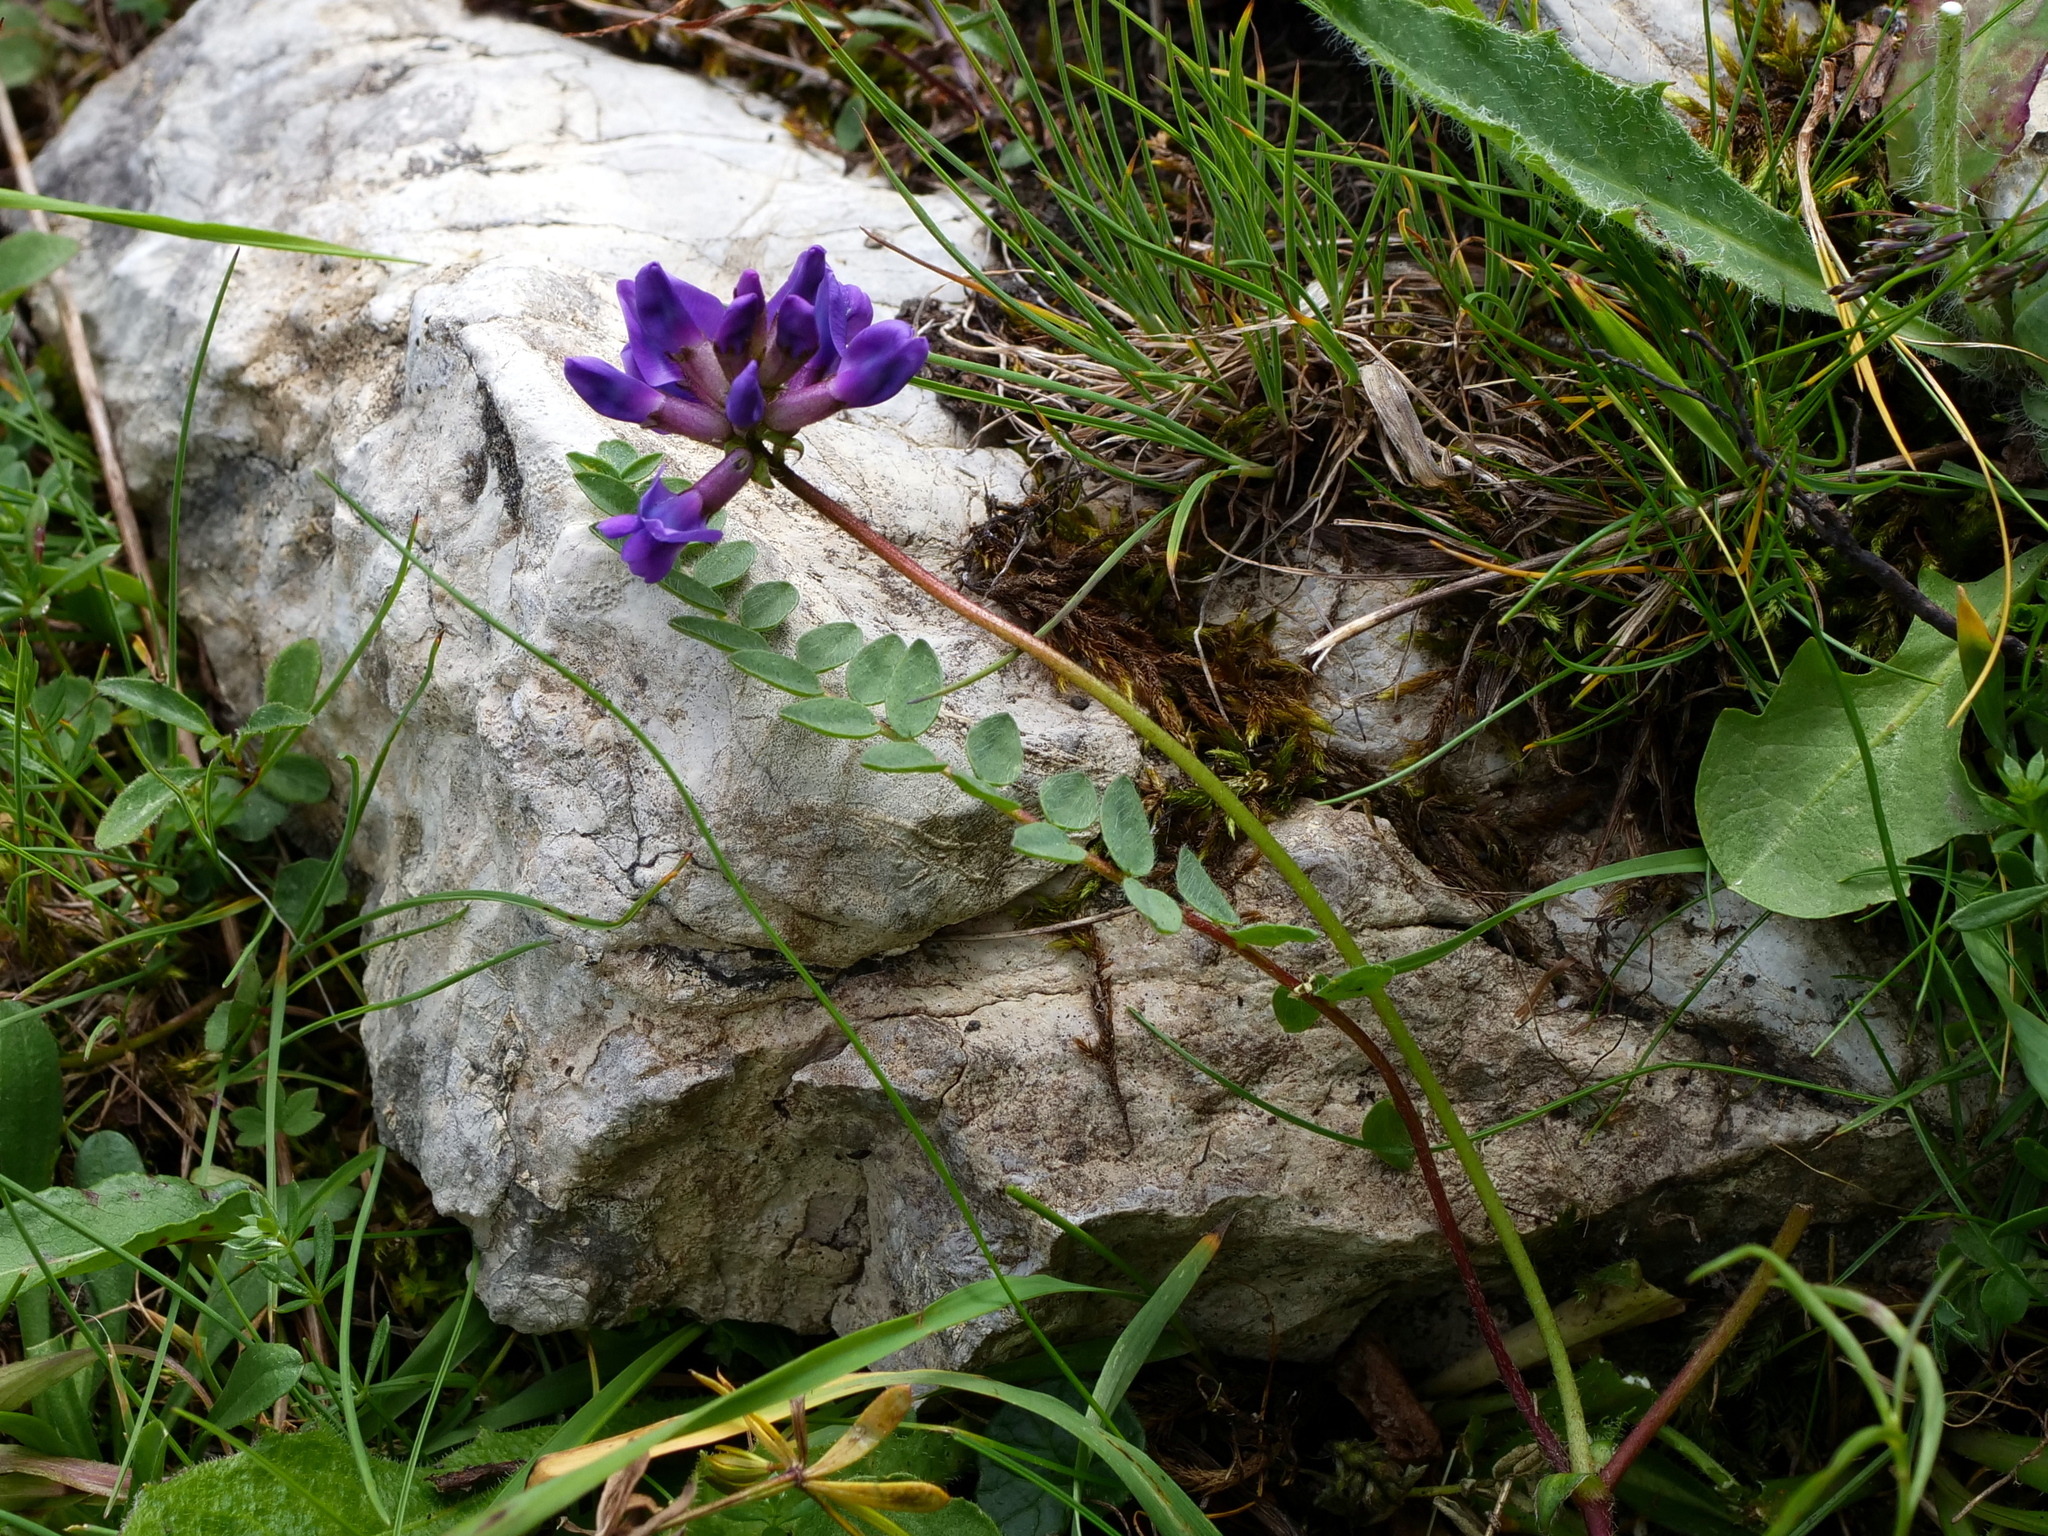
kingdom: Plantae
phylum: Tracheophyta
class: Magnoliopsida
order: Fabales
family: Fabaceae
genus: Oxytropis
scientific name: Oxytropis montana
